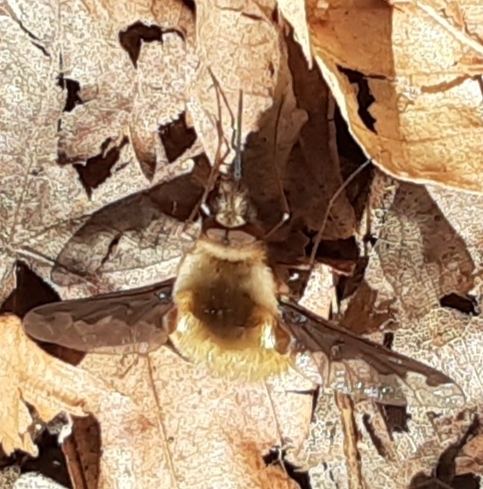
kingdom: Animalia
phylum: Arthropoda
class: Insecta
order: Diptera
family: Bombyliidae
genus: Bombylius
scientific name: Bombylius major
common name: Bee fly
